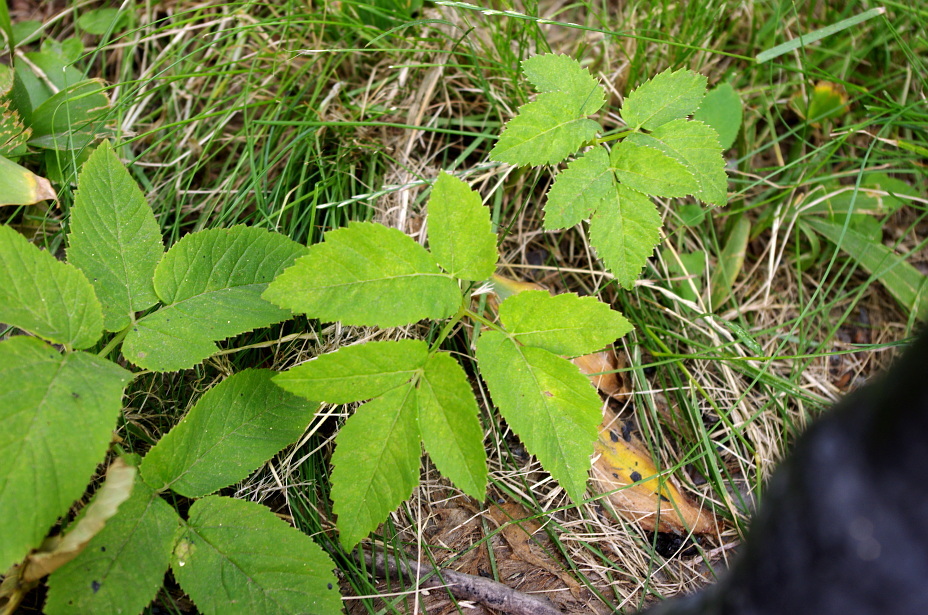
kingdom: Plantae
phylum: Tracheophyta
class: Magnoliopsida
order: Apiales
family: Apiaceae
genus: Aegopodium
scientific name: Aegopodium podagraria
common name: Ground-elder
